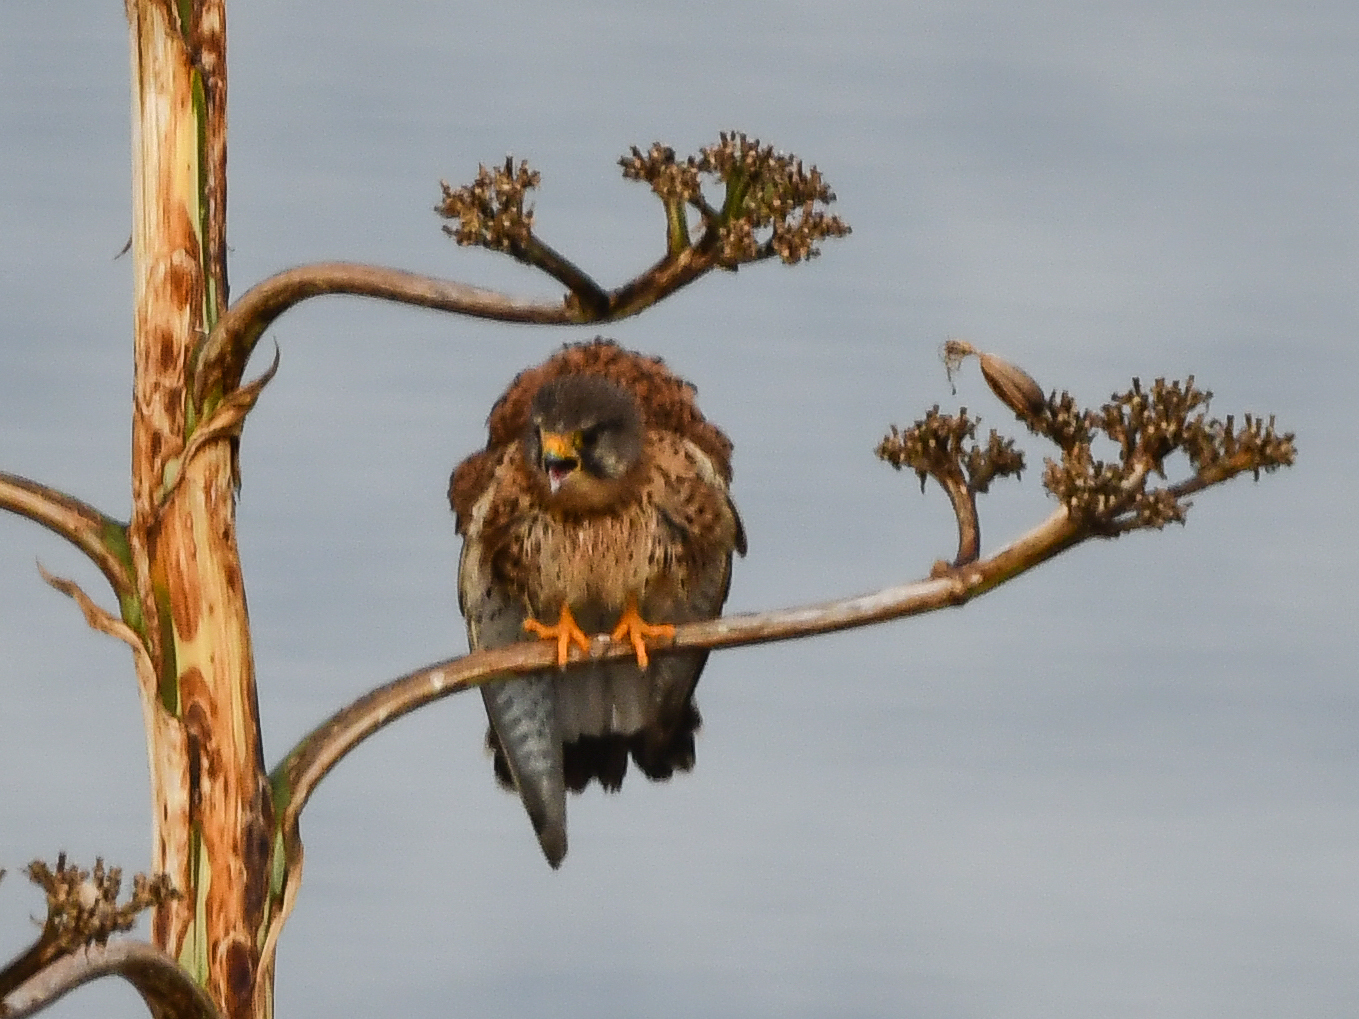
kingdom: Animalia
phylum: Chordata
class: Aves
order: Falconiformes
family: Falconidae
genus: Falco
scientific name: Falco tinnunculus
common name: Common kestrel
